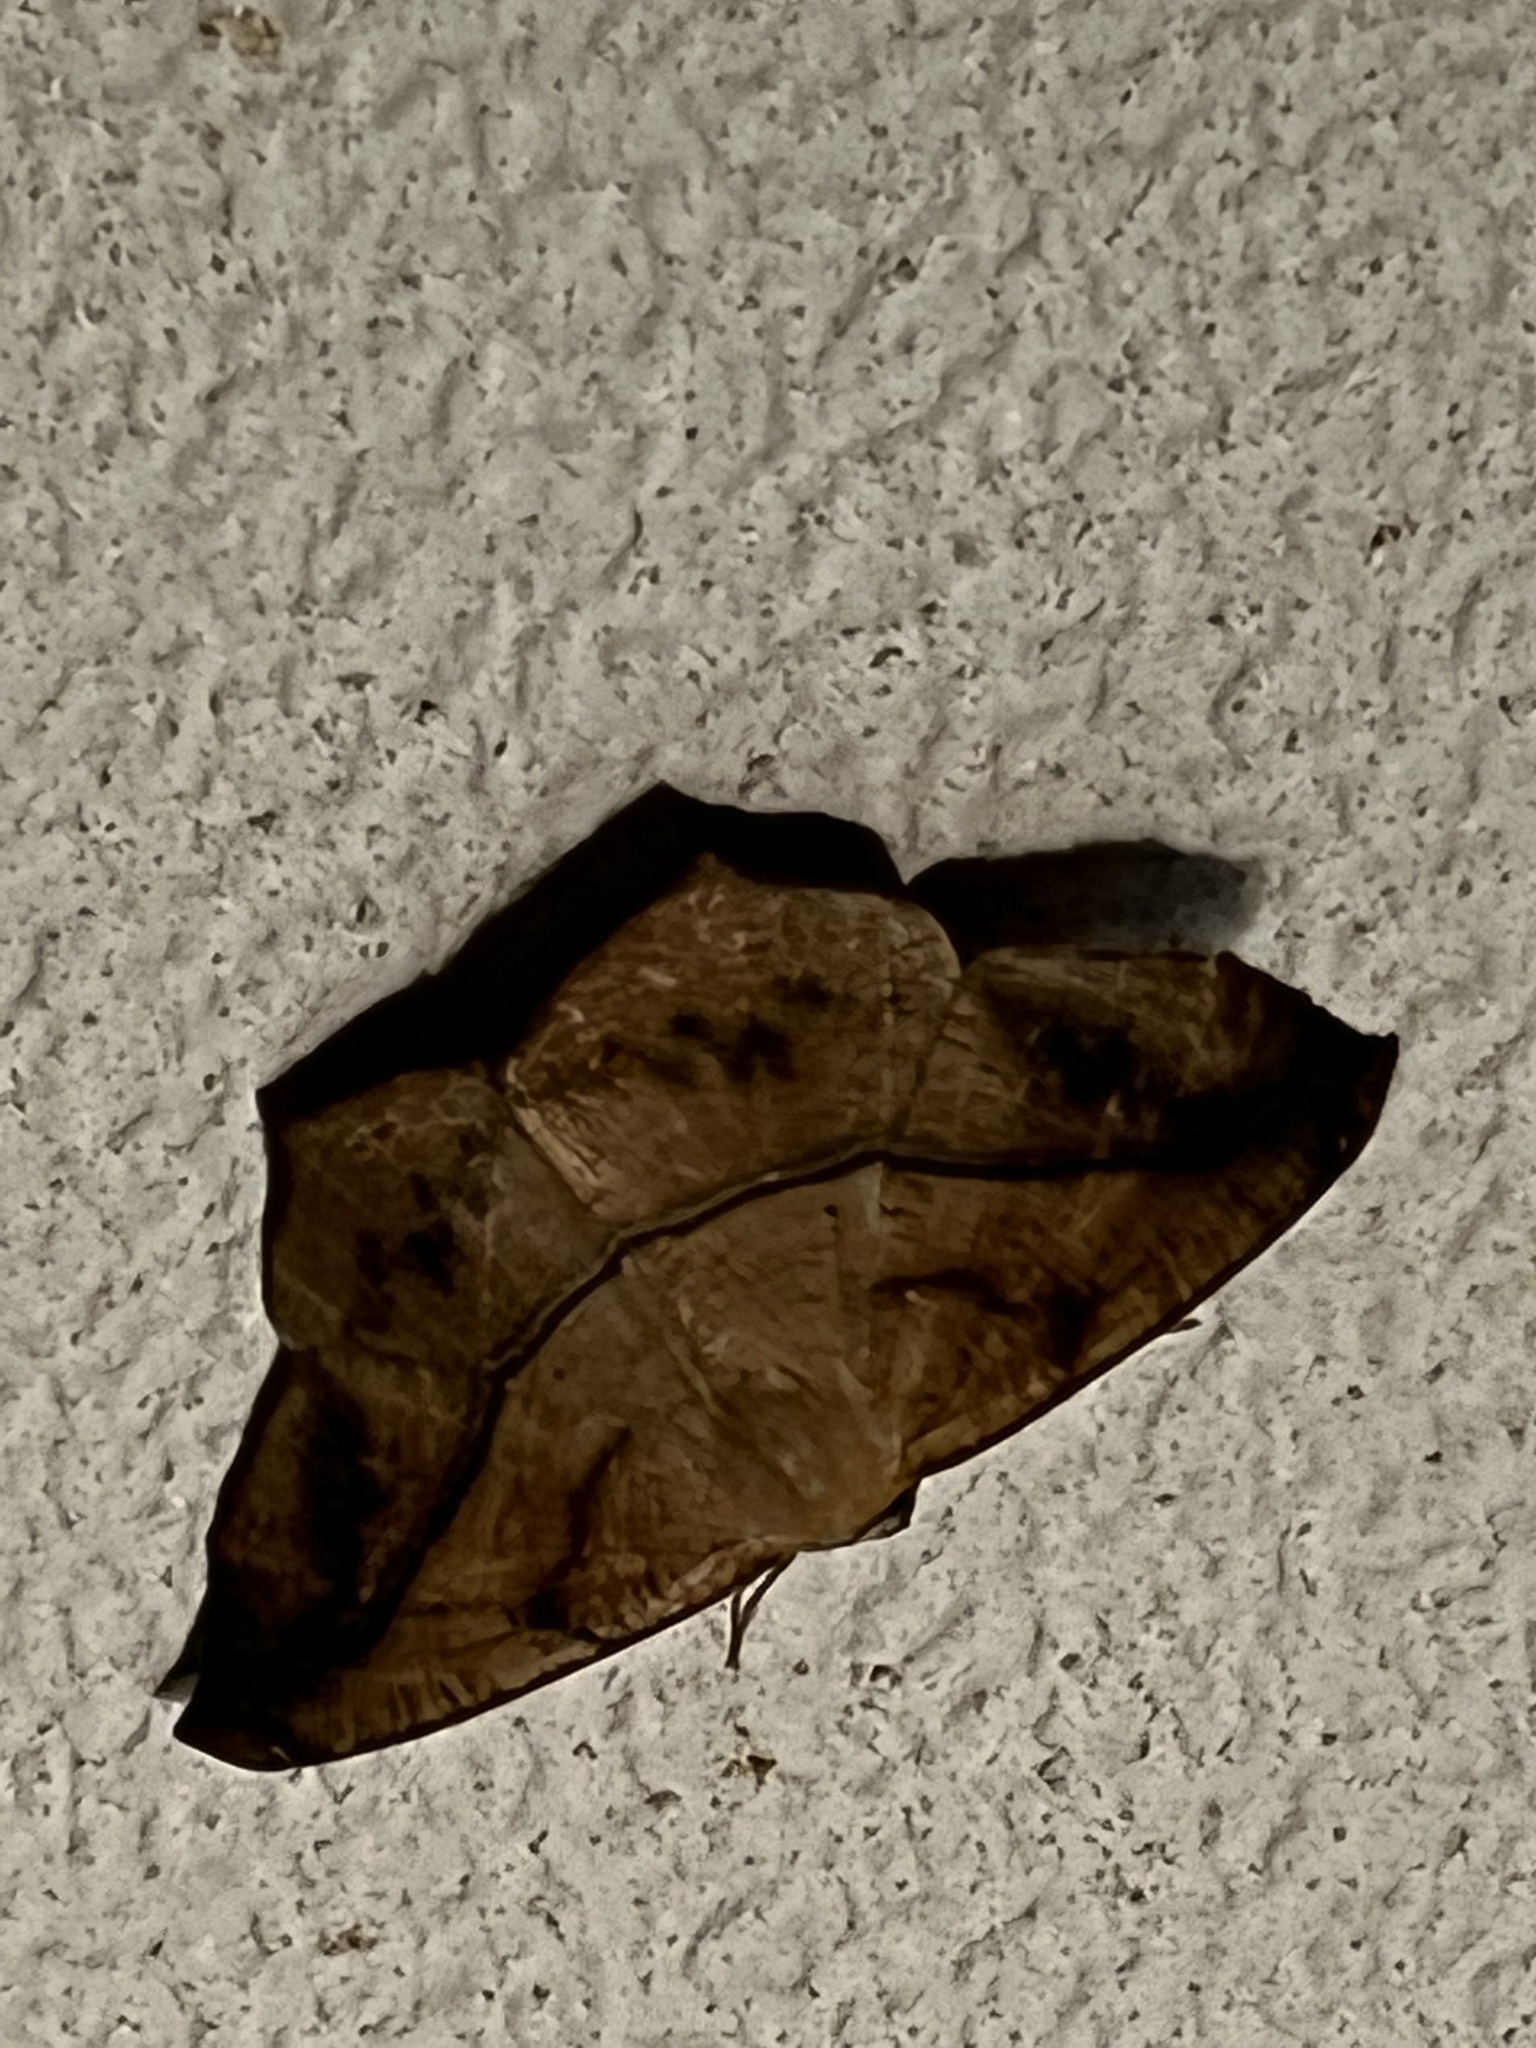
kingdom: Animalia
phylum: Arthropoda
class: Insecta
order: Lepidoptera
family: Geometridae
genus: Prochoerodes
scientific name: Prochoerodes lineola
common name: Large maple spanworm
